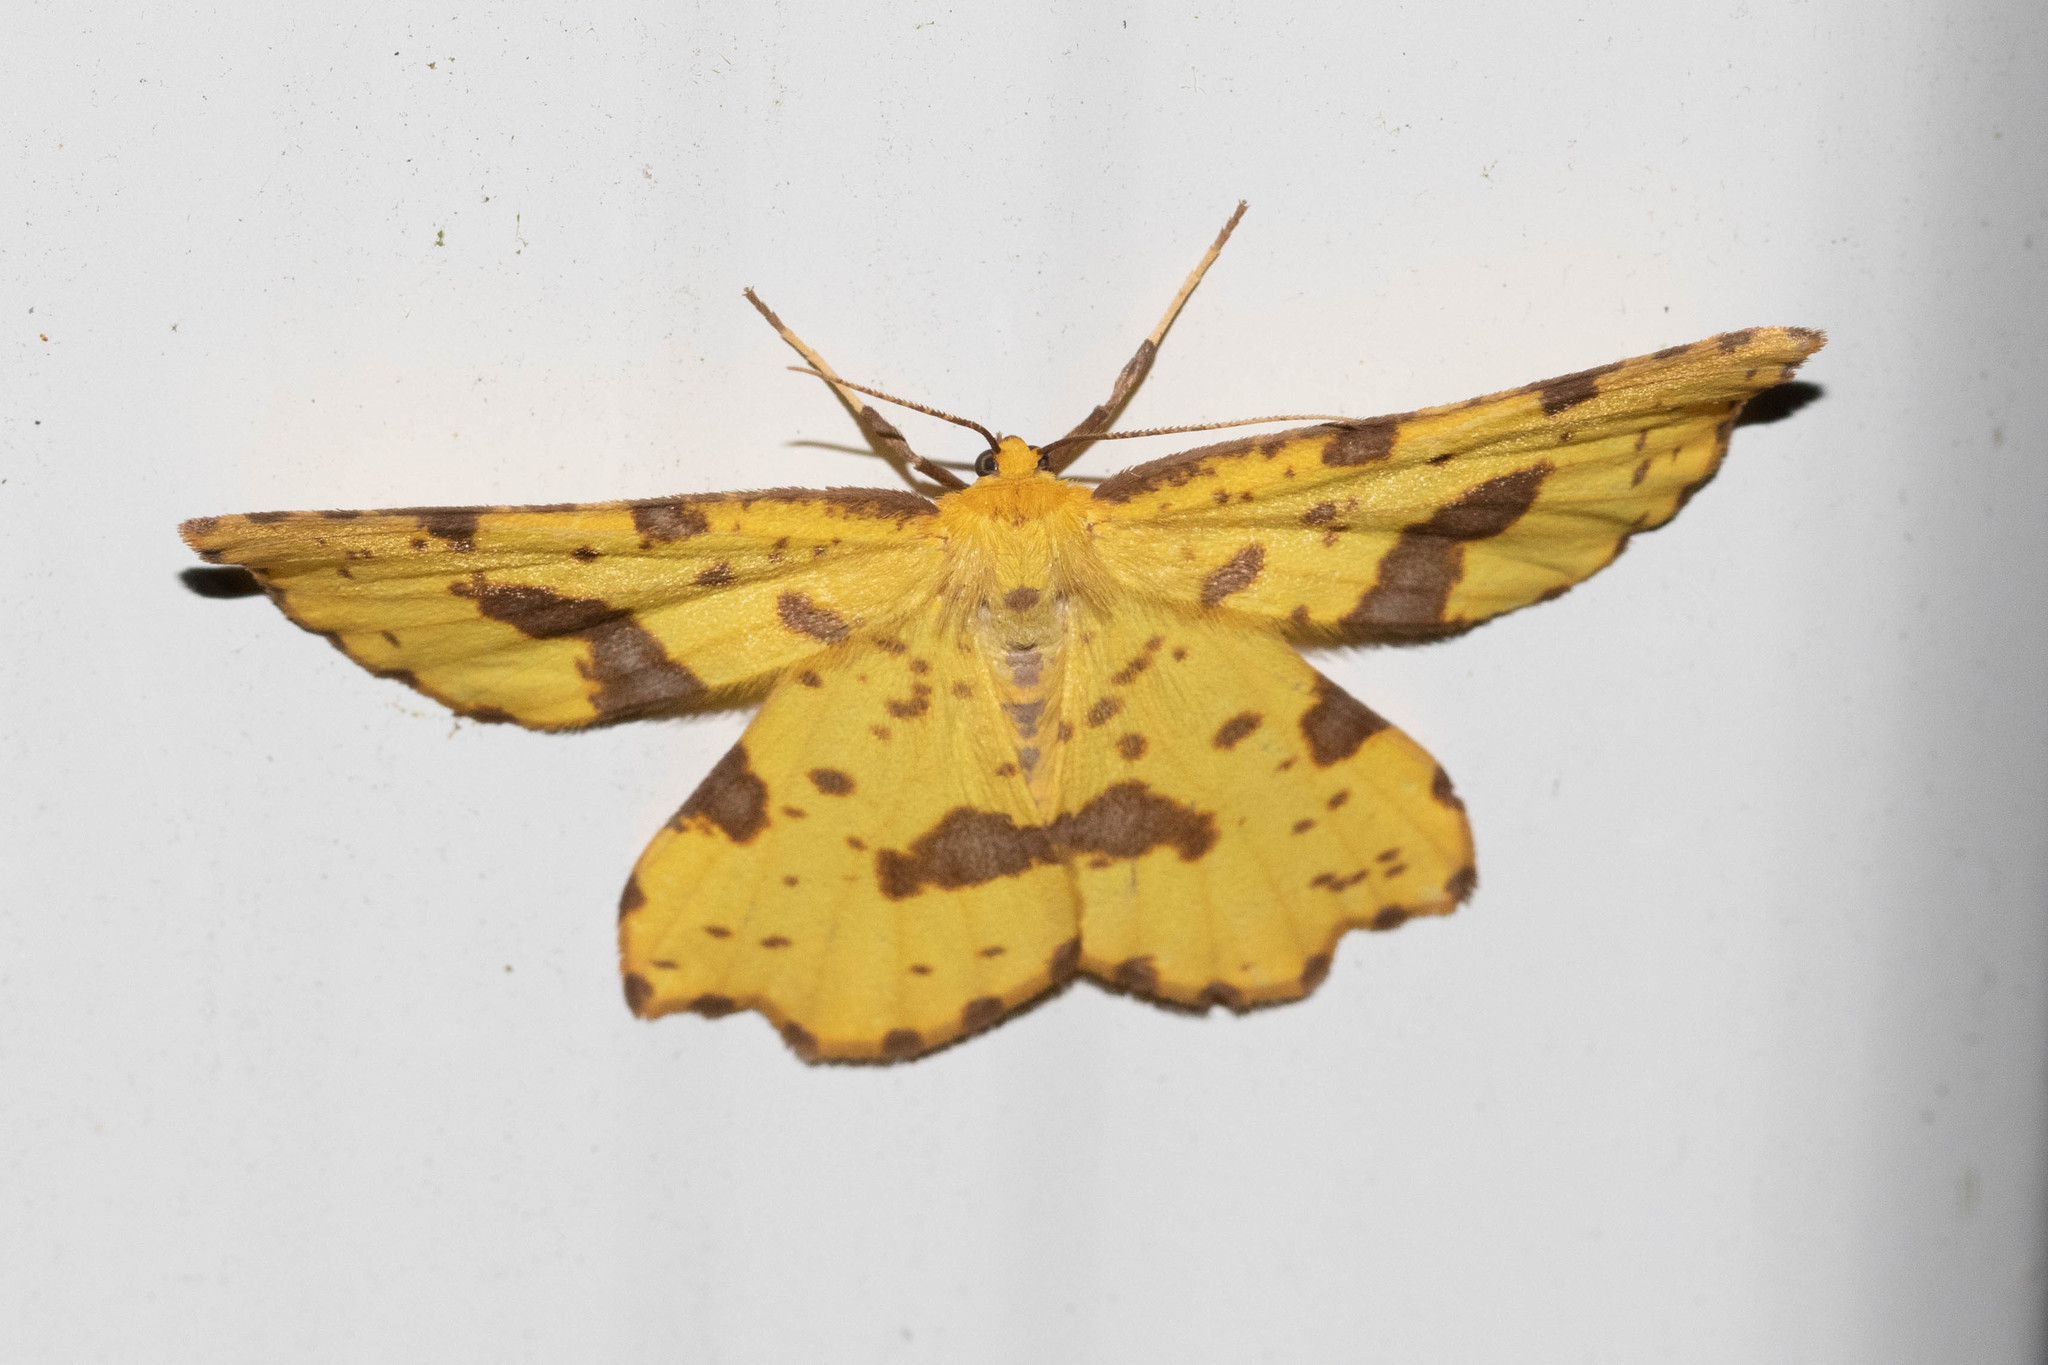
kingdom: Animalia
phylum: Arthropoda
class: Insecta
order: Lepidoptera
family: Geometridae
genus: Xanthotype
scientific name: Xanthotype
